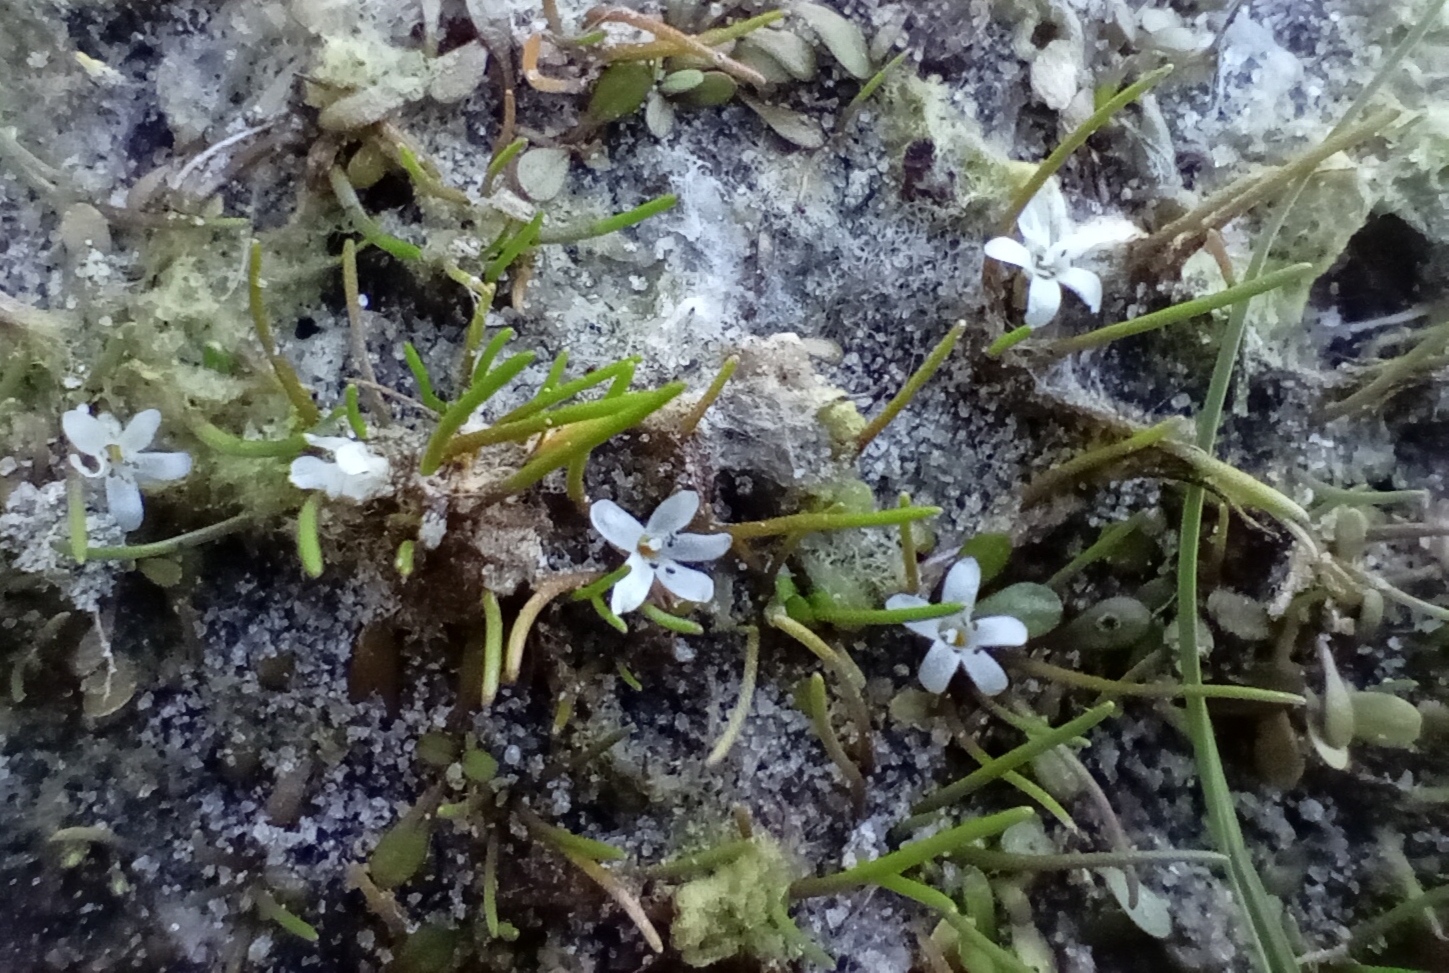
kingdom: Plantae
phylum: Tracheophyta
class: Magnoliopsida
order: Lamiales
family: Scrophulariaceae
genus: Limosella
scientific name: Limosella australis
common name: Welsh mudwort
